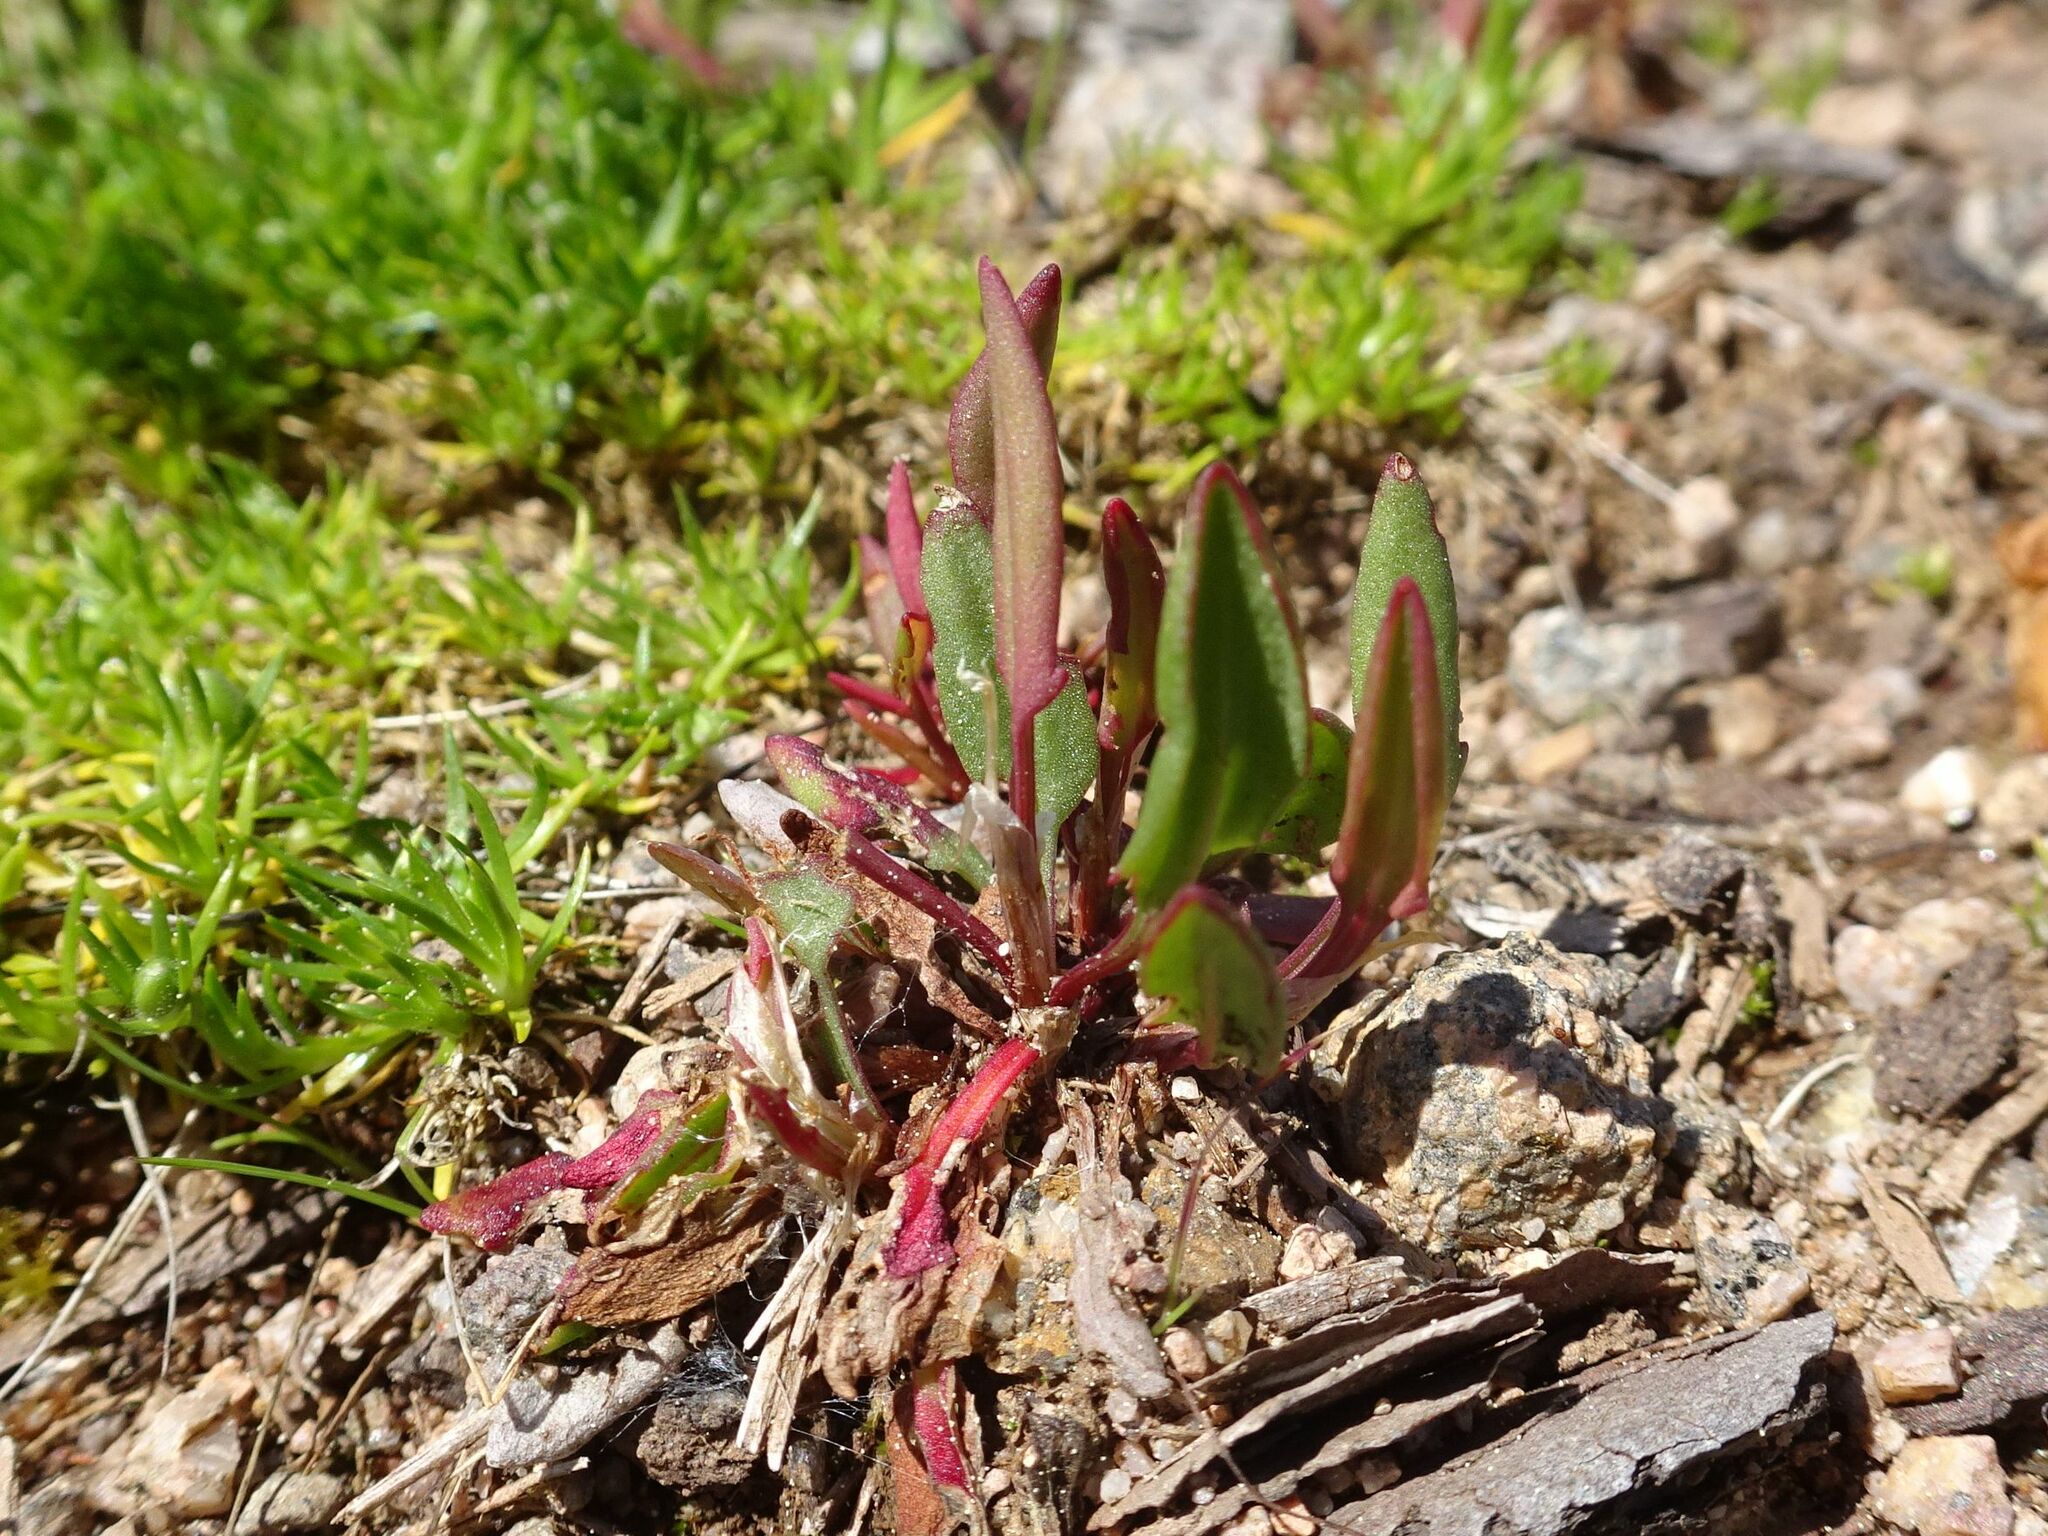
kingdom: Plantae
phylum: Tracheophyta
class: Magnoliopsida
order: Caryophyllales
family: Polygonaceae
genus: Rumex
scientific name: Rumex acetosella
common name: Common sheep sorrel
